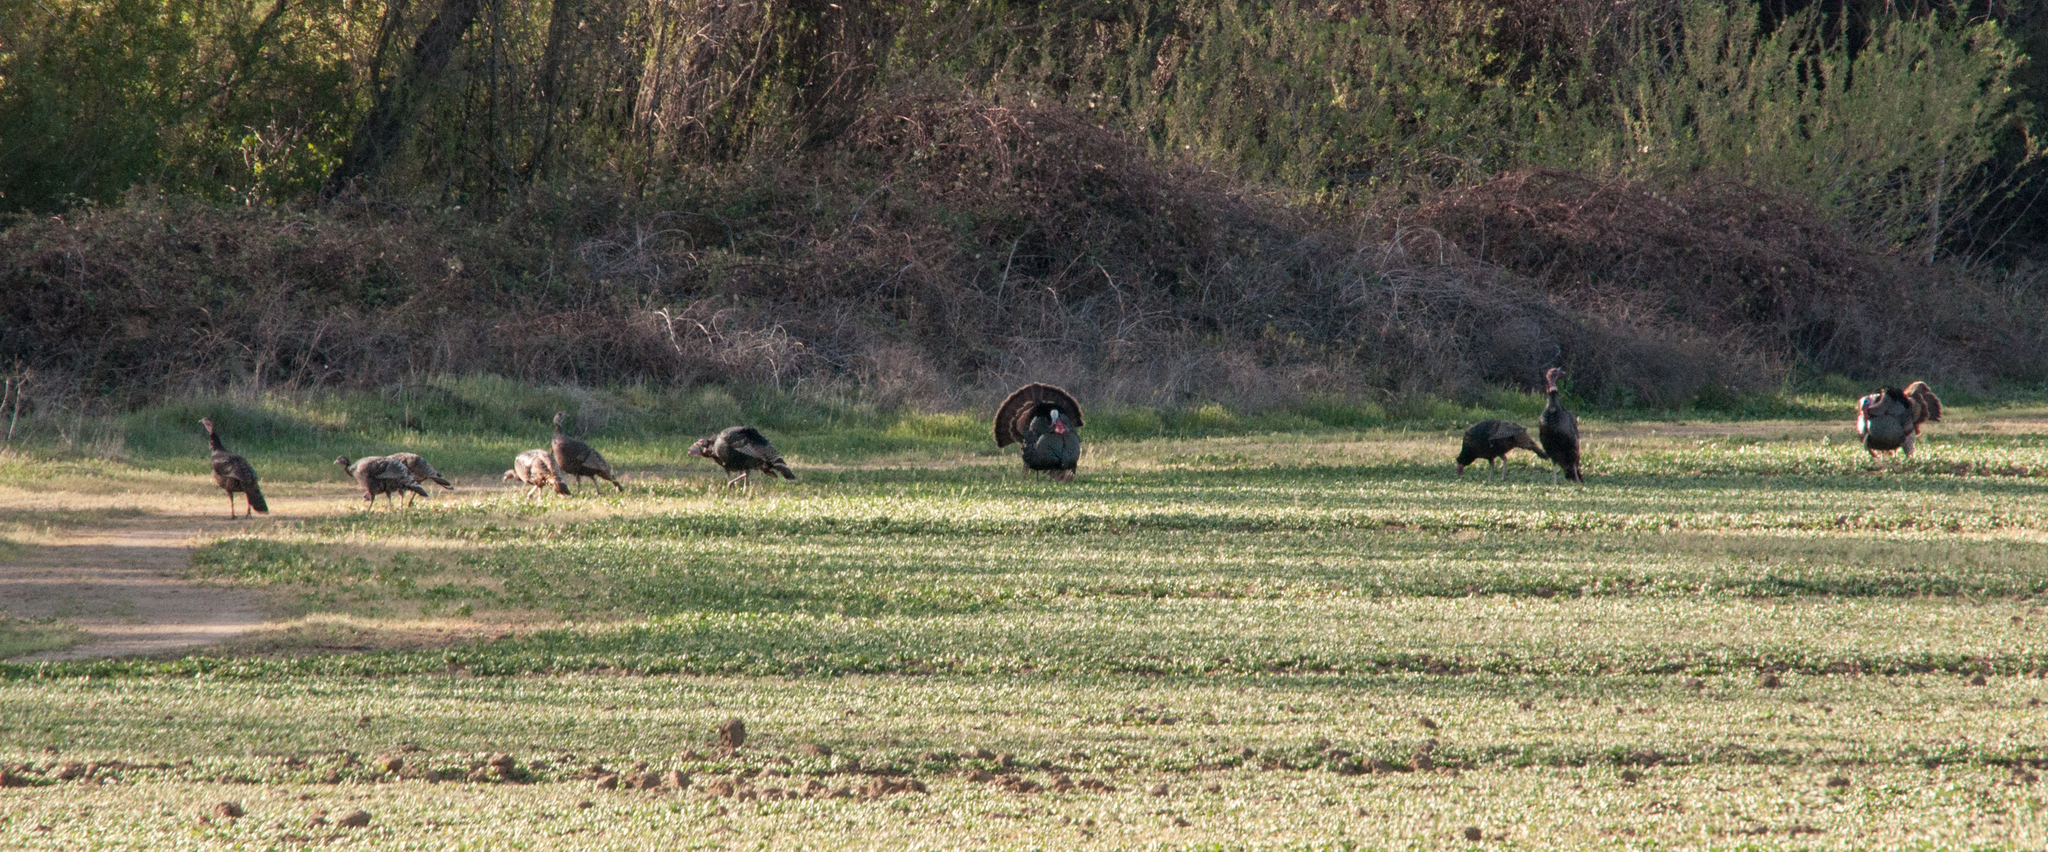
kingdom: Animalia
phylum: Chordata
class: Aves
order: Galliformes
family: Phasianidae
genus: Meleagris
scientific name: Meleagris gallopavo
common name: Wild turkey
